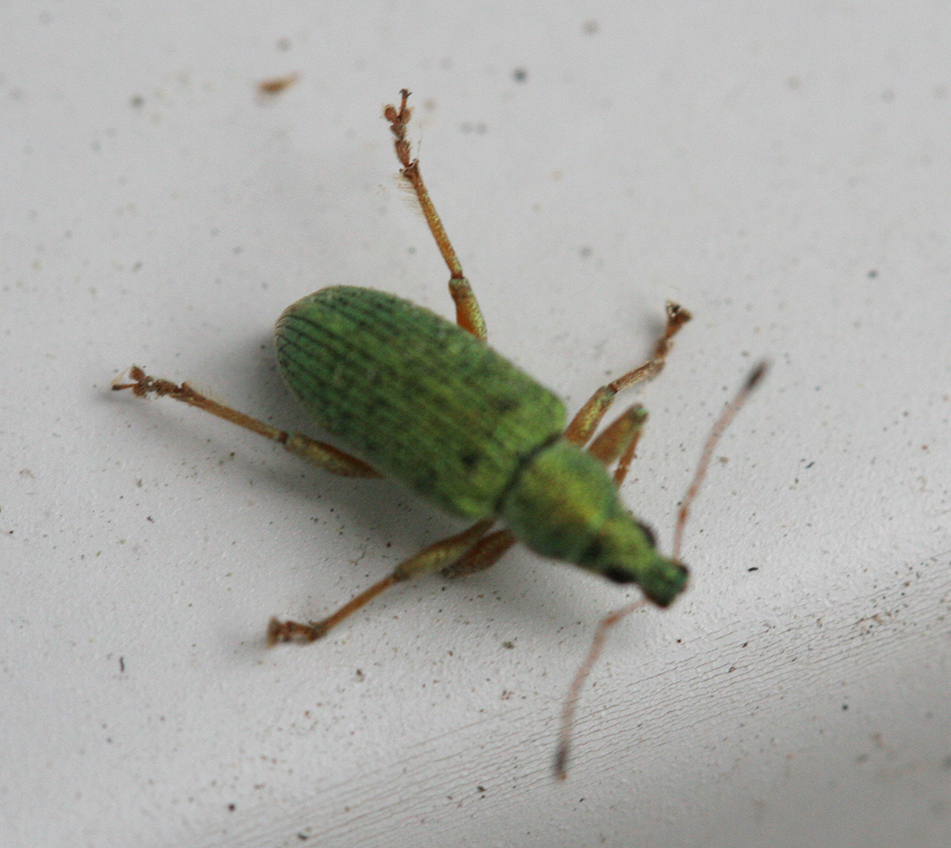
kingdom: Animalia
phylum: Arthropoda
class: Insecta
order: Coleoptera
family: Curculionidae
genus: Polydrusus
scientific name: Polydrusus formosus
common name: Weevil
